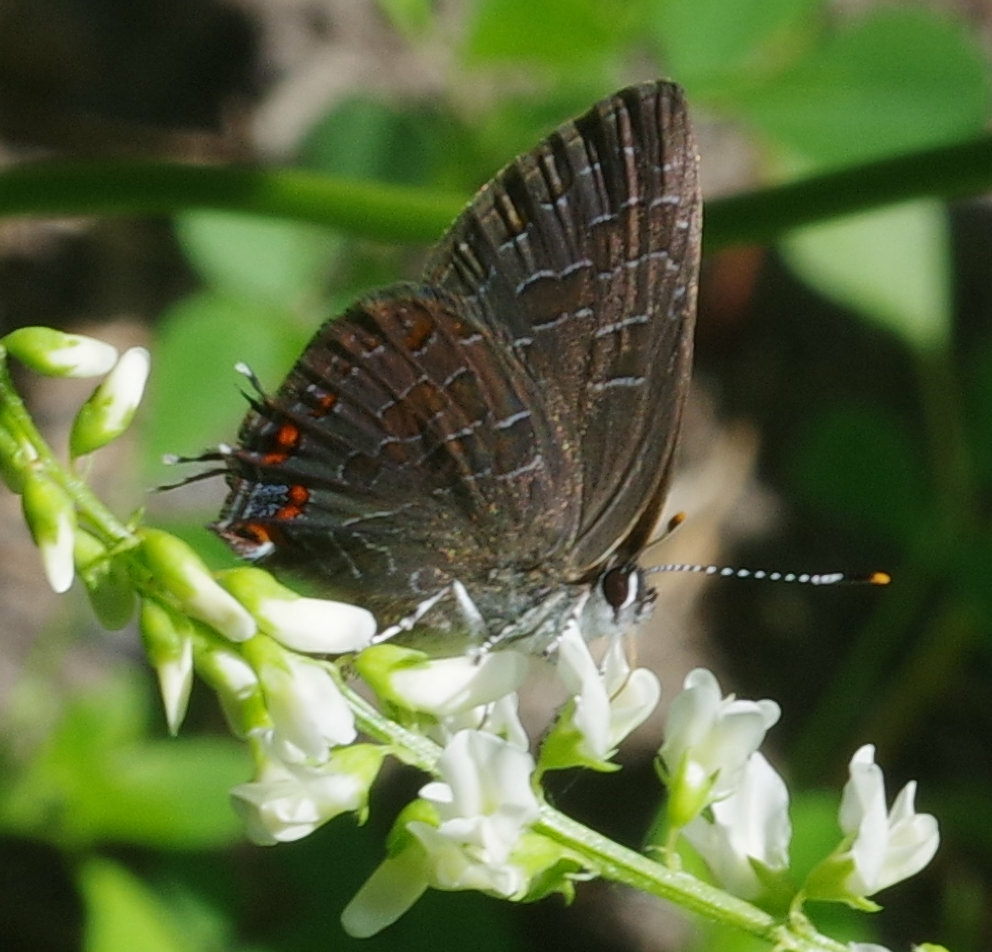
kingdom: Animalia
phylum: Arthropoda
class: Insecta
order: Lepidoptera
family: Lycaenidae
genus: Satyrium
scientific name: Satyrium liparops
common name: Striped hairstreak
